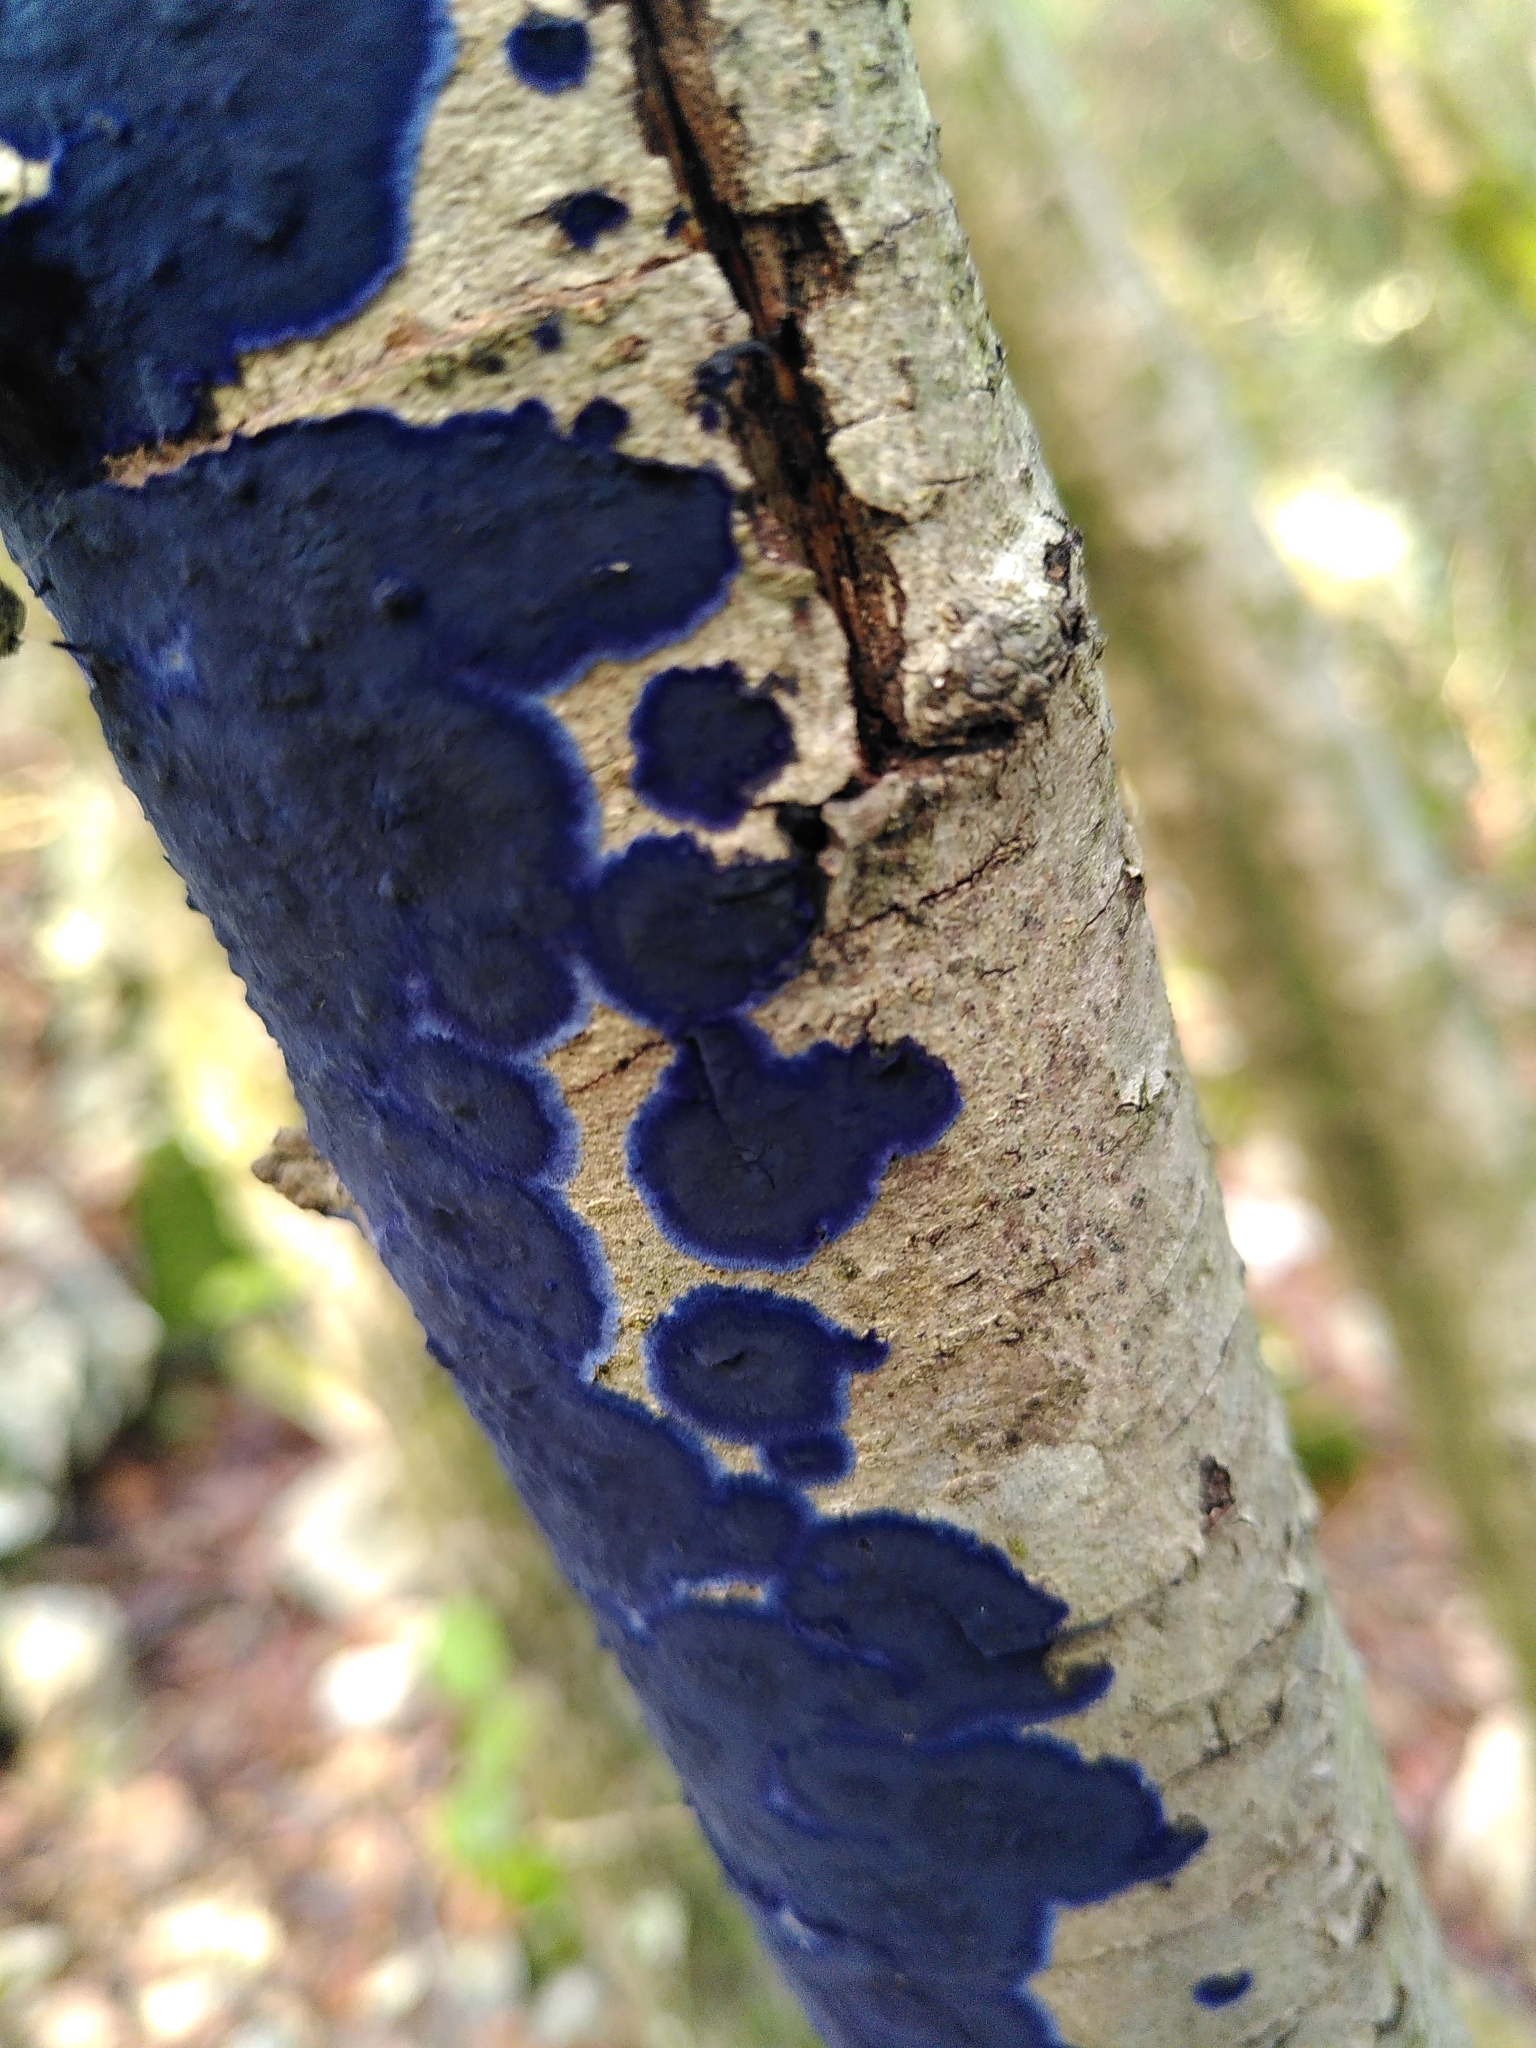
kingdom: Fungi
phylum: Basidiomycota
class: Agaricomycetes
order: Polyporales
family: Phanerochaetaceae
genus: Terana
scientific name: Terana coerulea
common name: Cobalt crust
